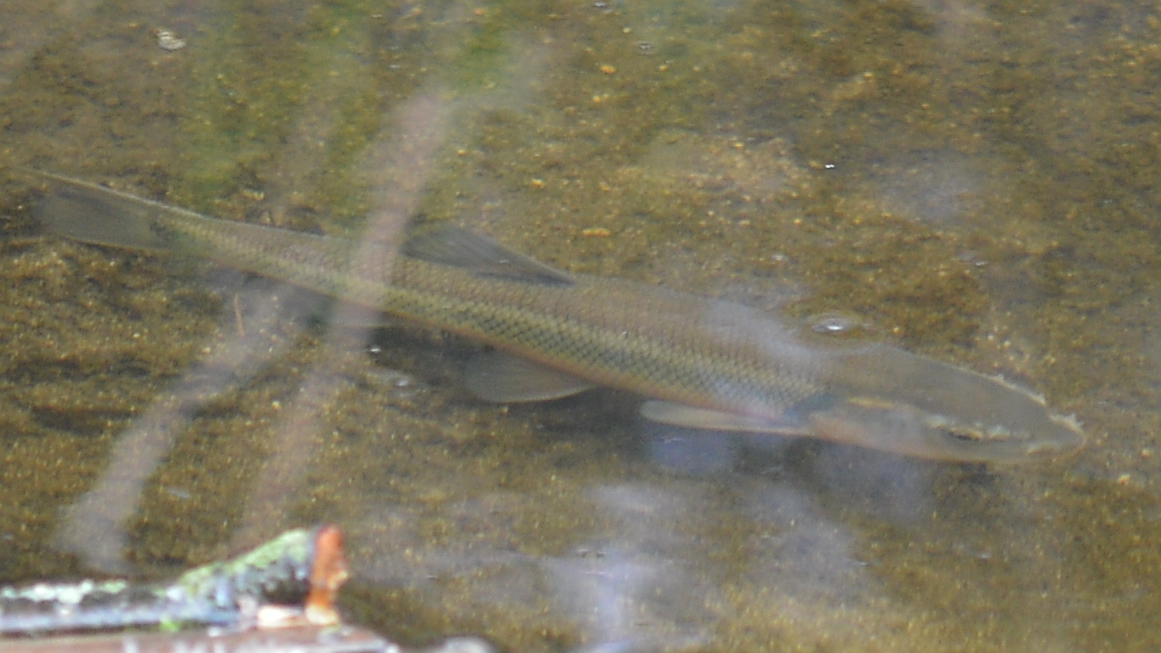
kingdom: Animalia
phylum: Chordata
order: Cypriniformes
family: Cyprinidae
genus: Semotilus
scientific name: Semotilus atromaculatus
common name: Creek chub
